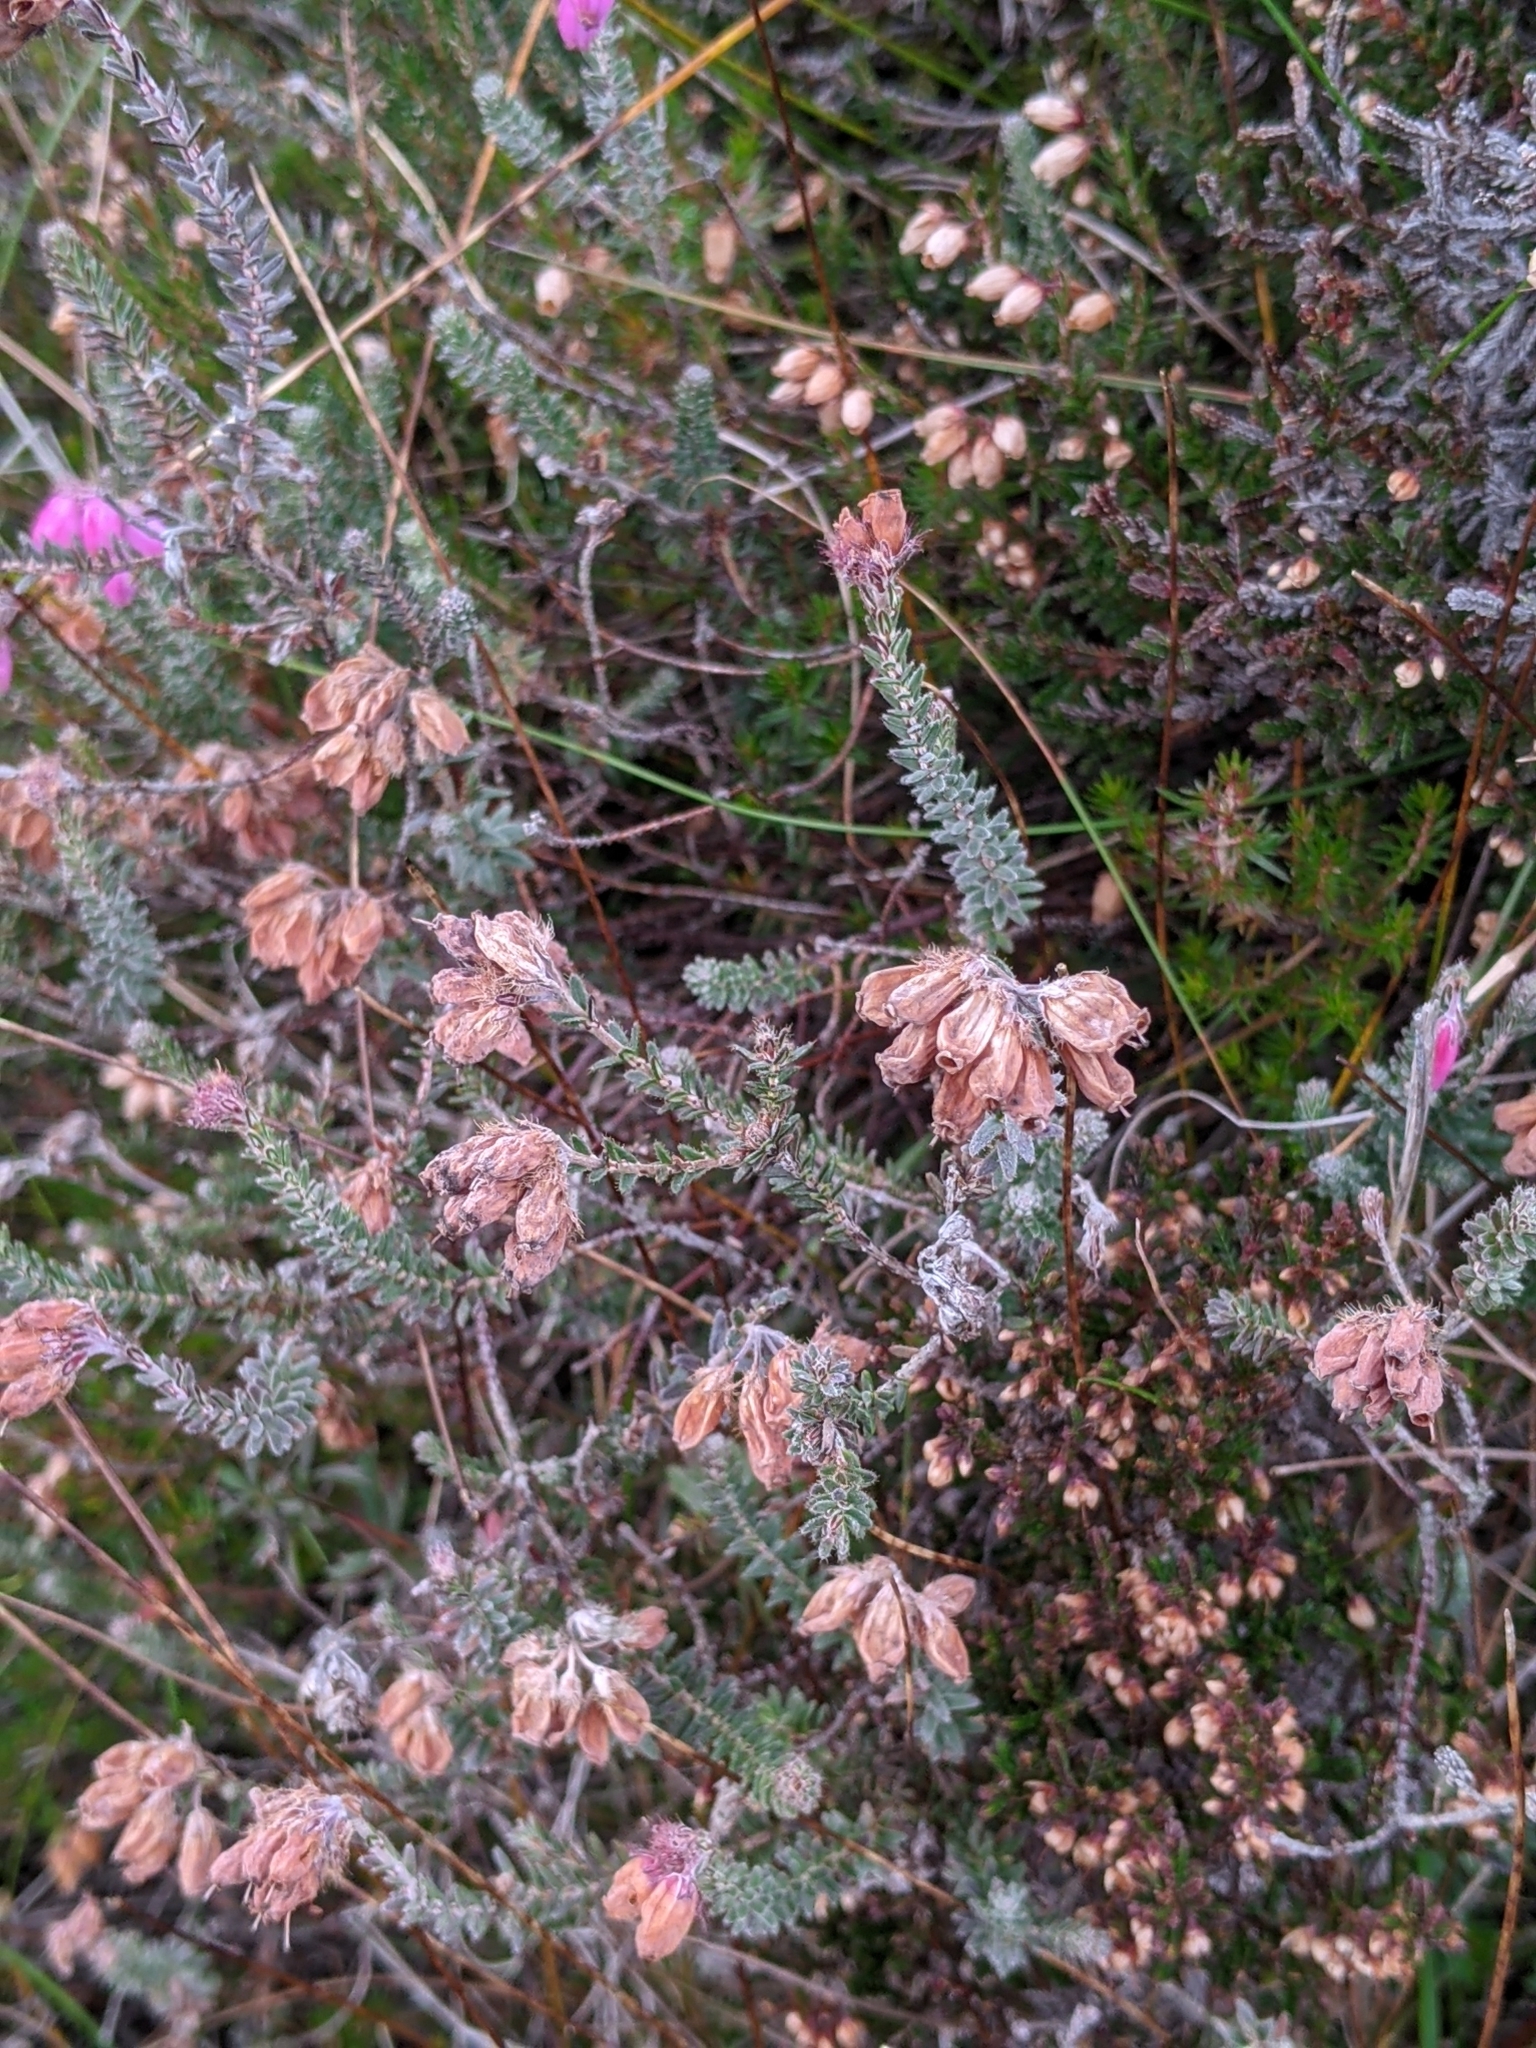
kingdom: Plantae
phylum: Tracheophyta
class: Magnoliopsida
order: Ericales
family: Ericaceae
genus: Erica
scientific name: Erica tetralix
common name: Cross-leaved heath
